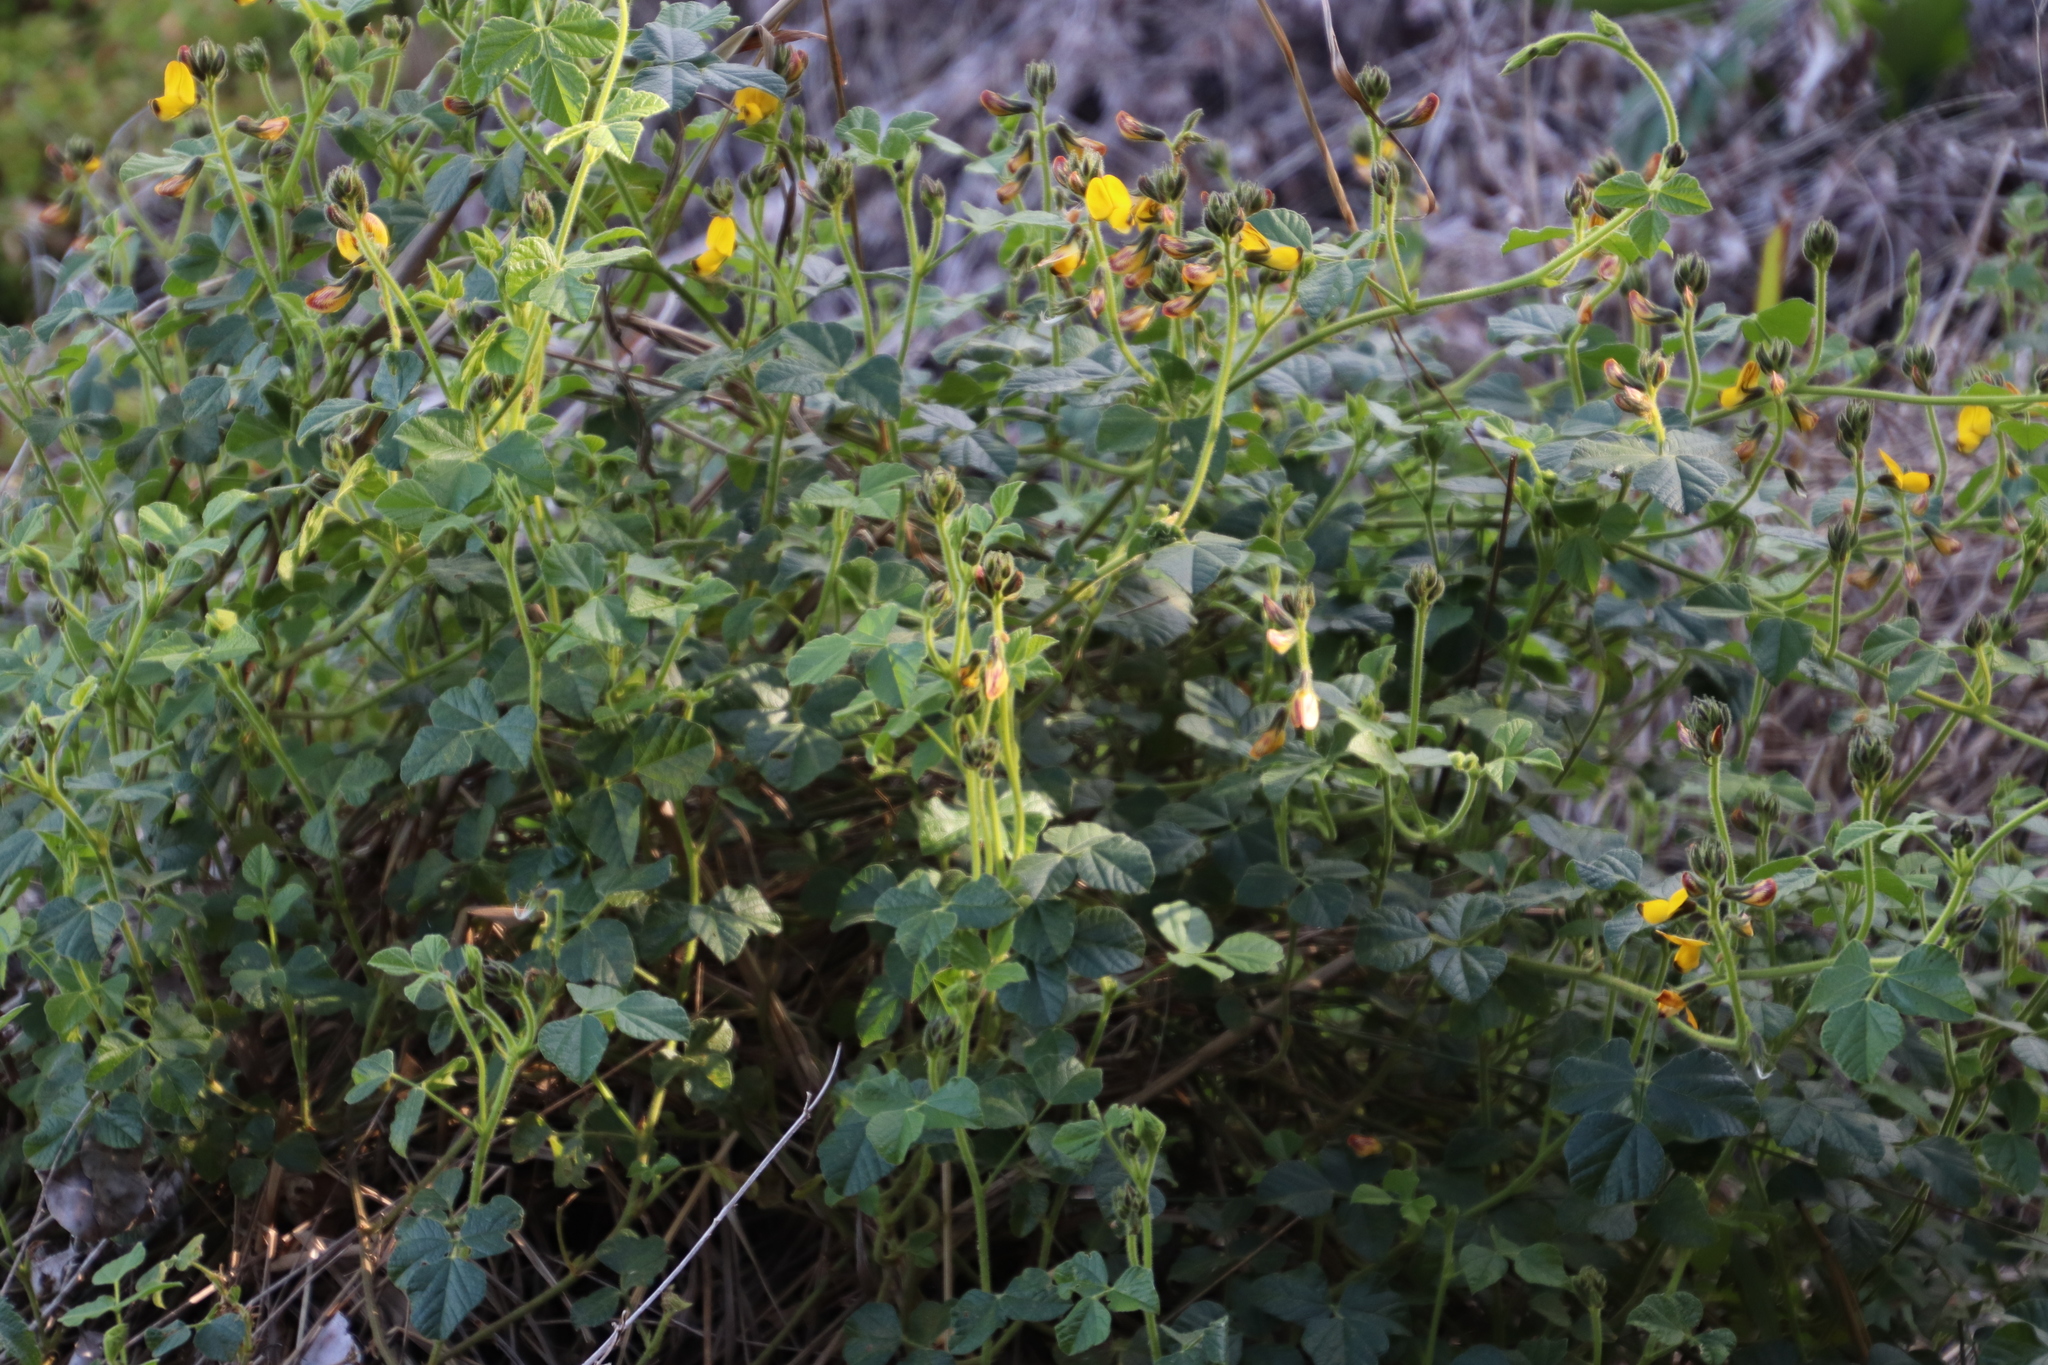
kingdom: Plantae
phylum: Tracheophyta
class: Magnoliopsida
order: Fabales
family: Fabaceae
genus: Bolusafra
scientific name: Bolusafra bituminosa
